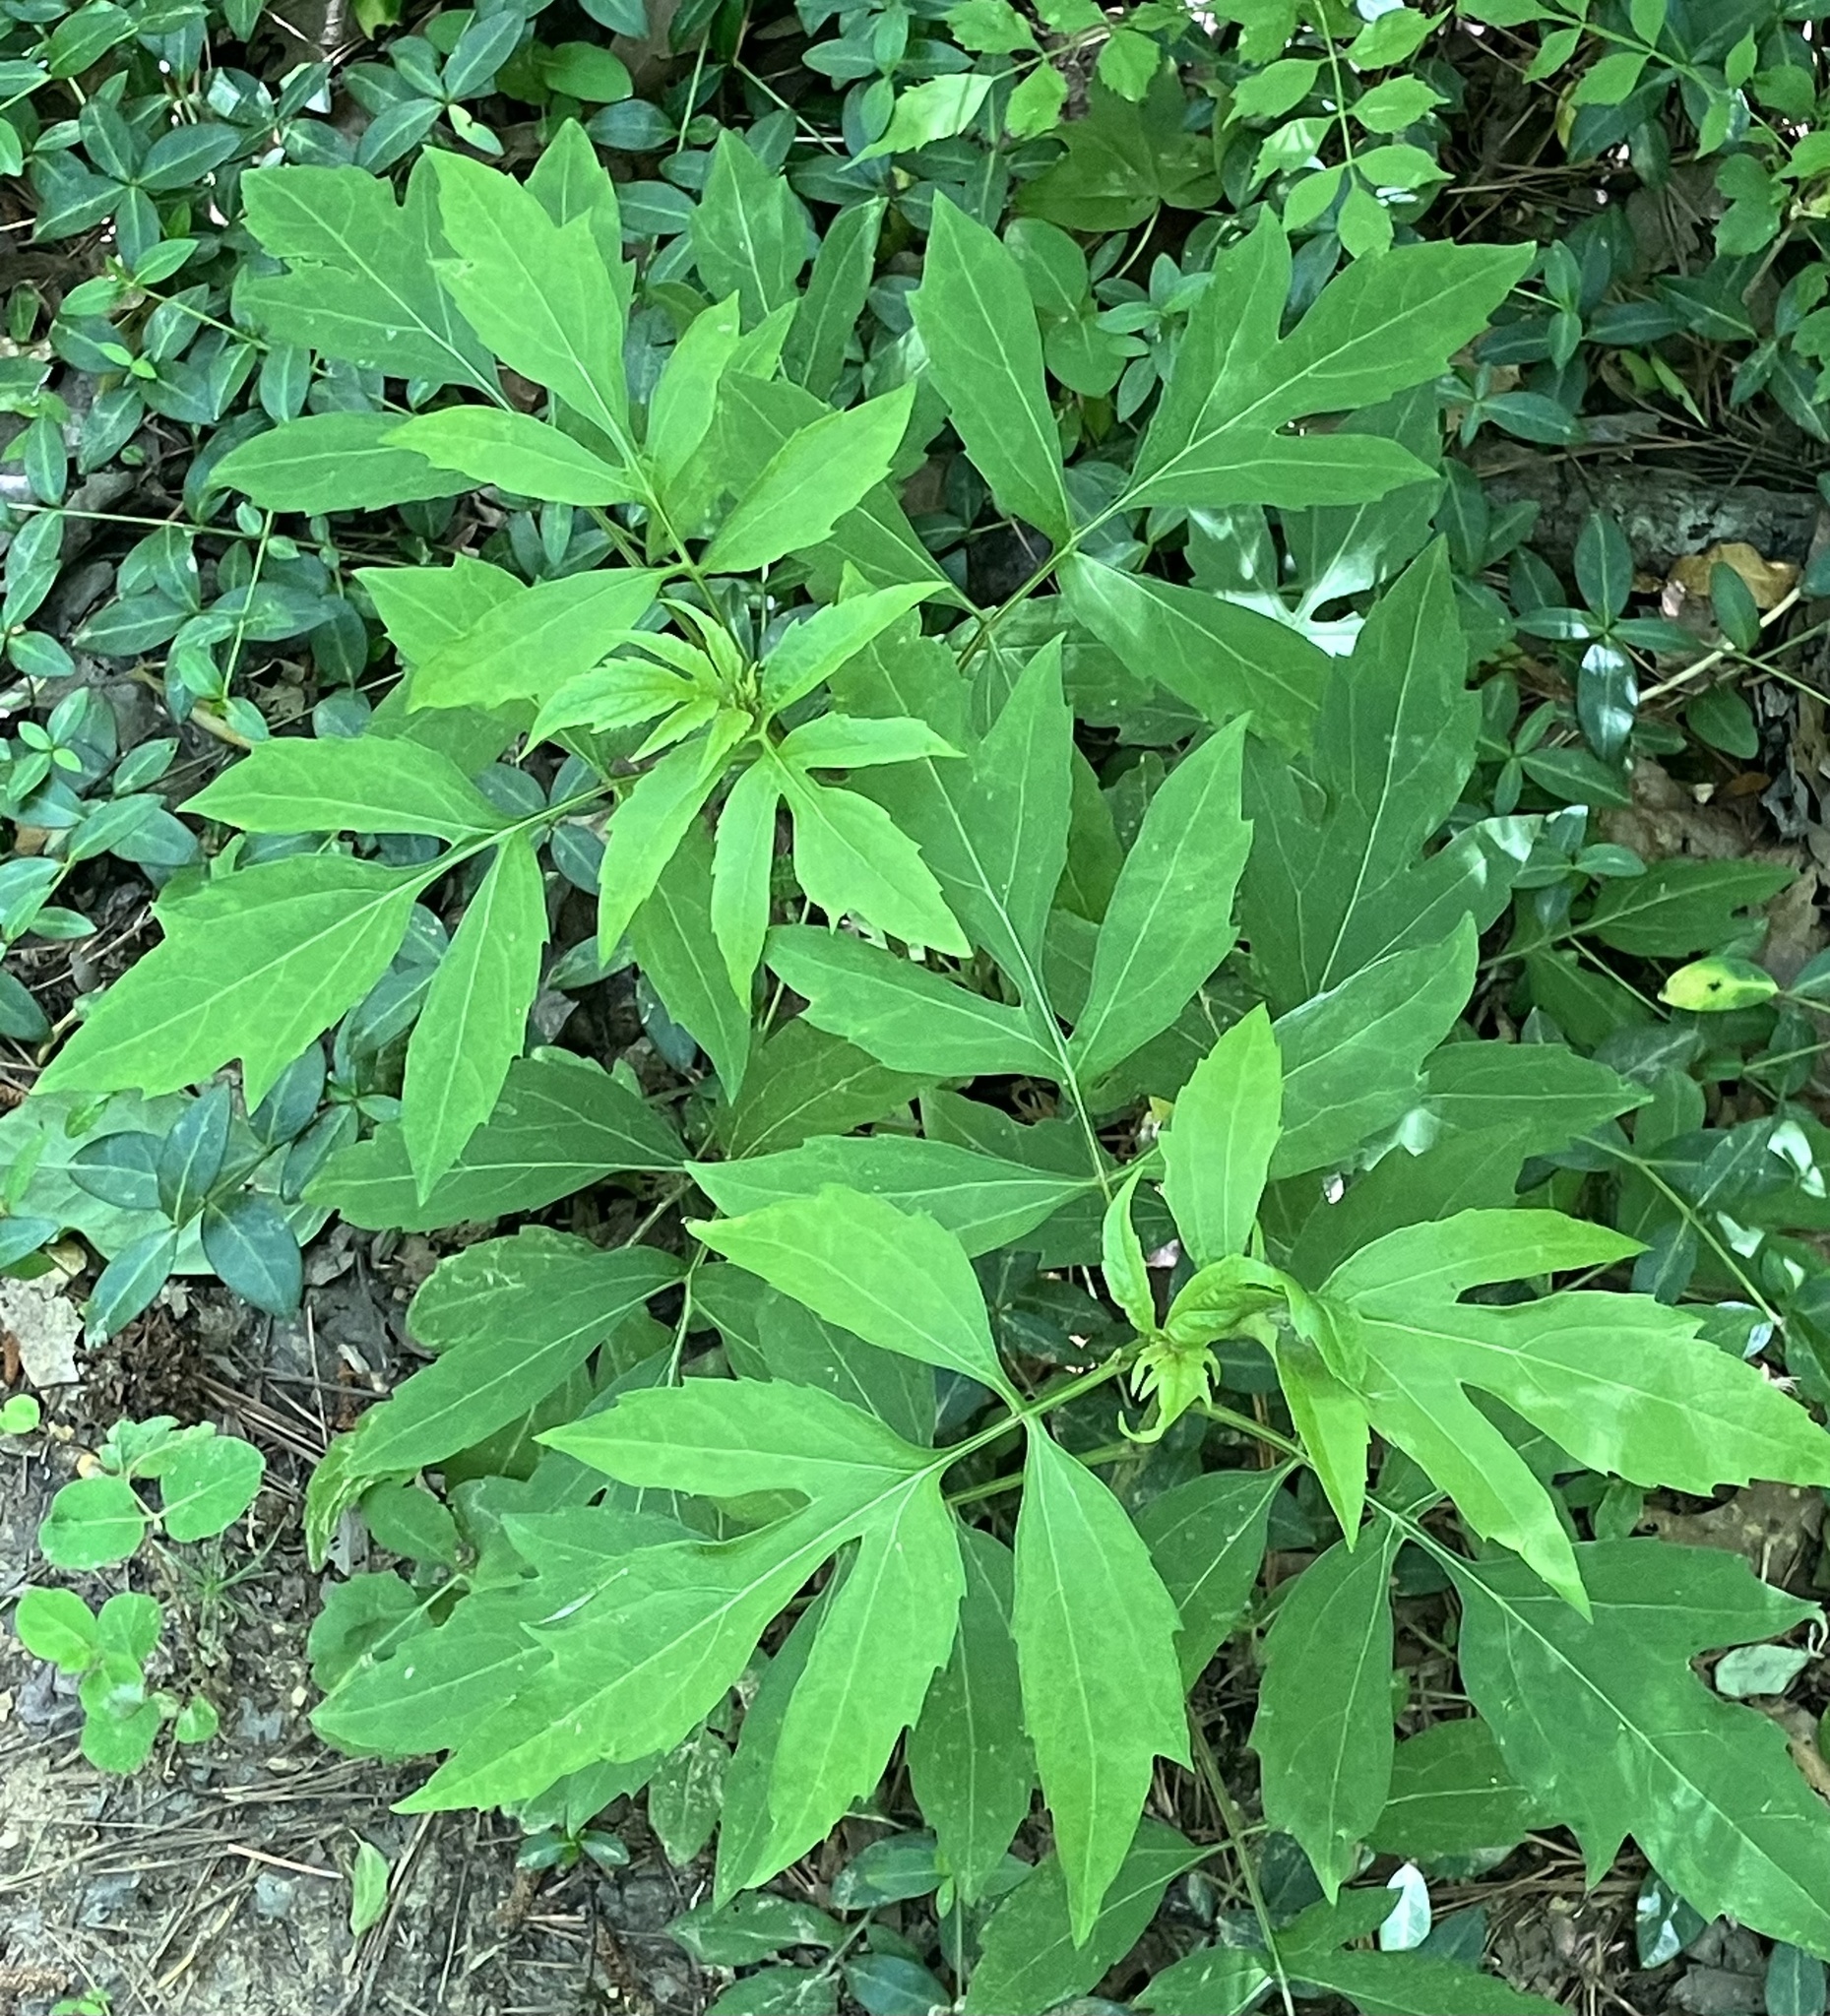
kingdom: Plantae
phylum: Tracheophyta
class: Magnoliopsida
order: Asterales
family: Asteraceae
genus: Rudbeckia
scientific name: Rudbeckia laciniata
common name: Coneflower
